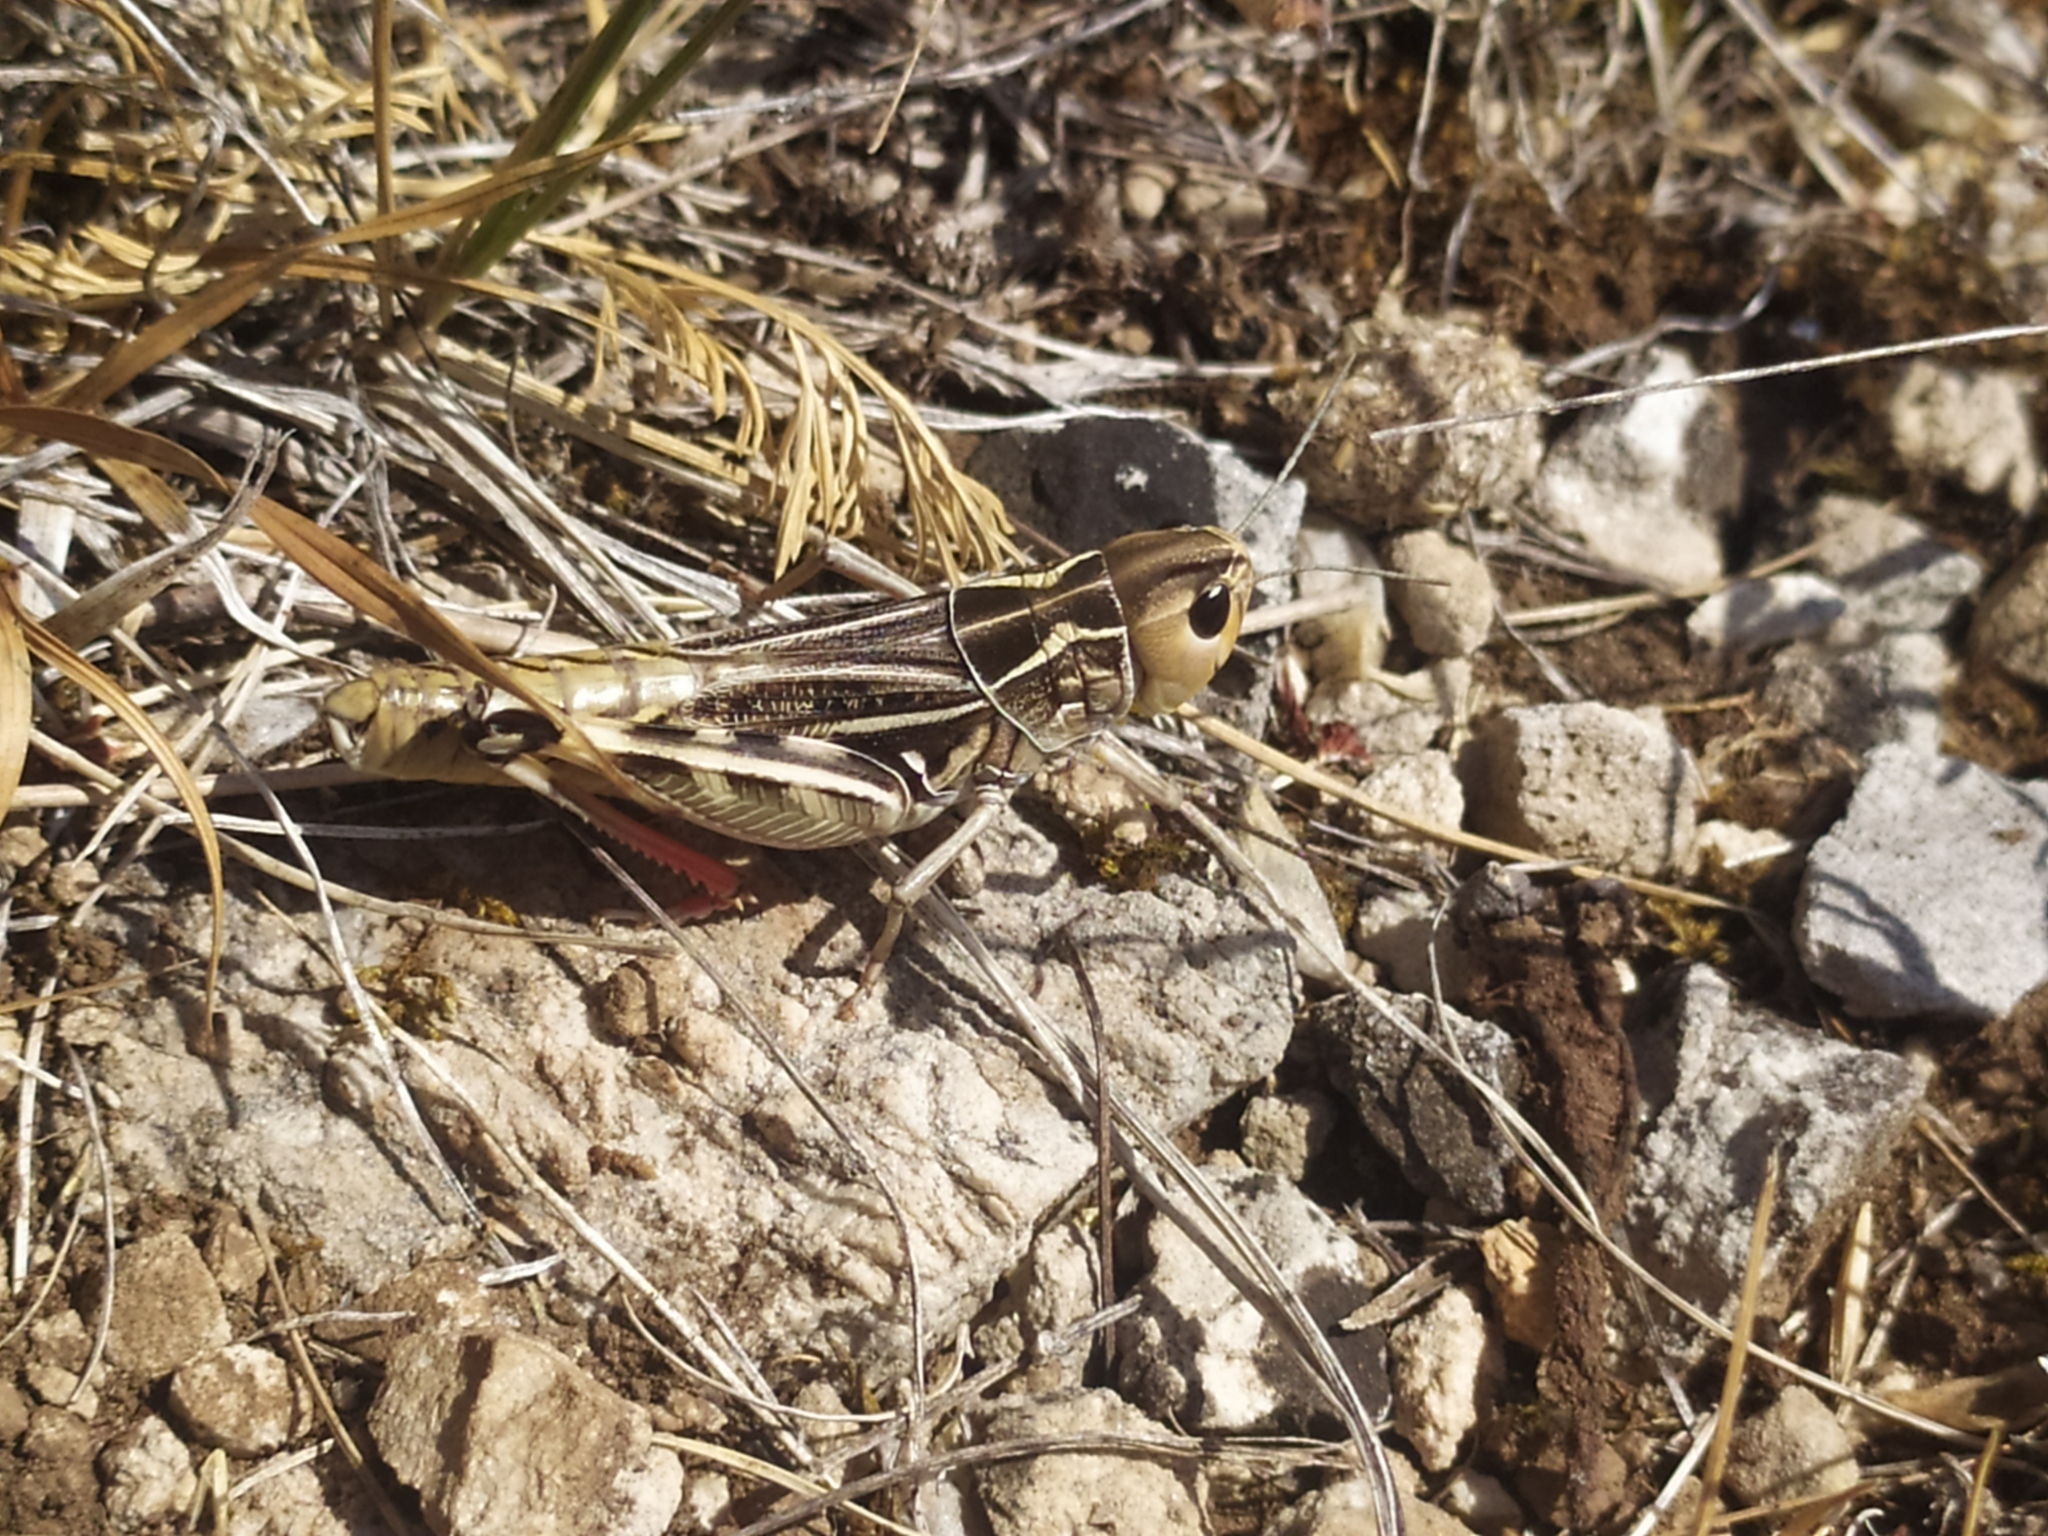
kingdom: Animalia
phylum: Arthropoda
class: Insecta
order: Orthoptera
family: Acrididae
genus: Arcyptera
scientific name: Arcyptera brevipennis
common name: Western banded grasshopper
